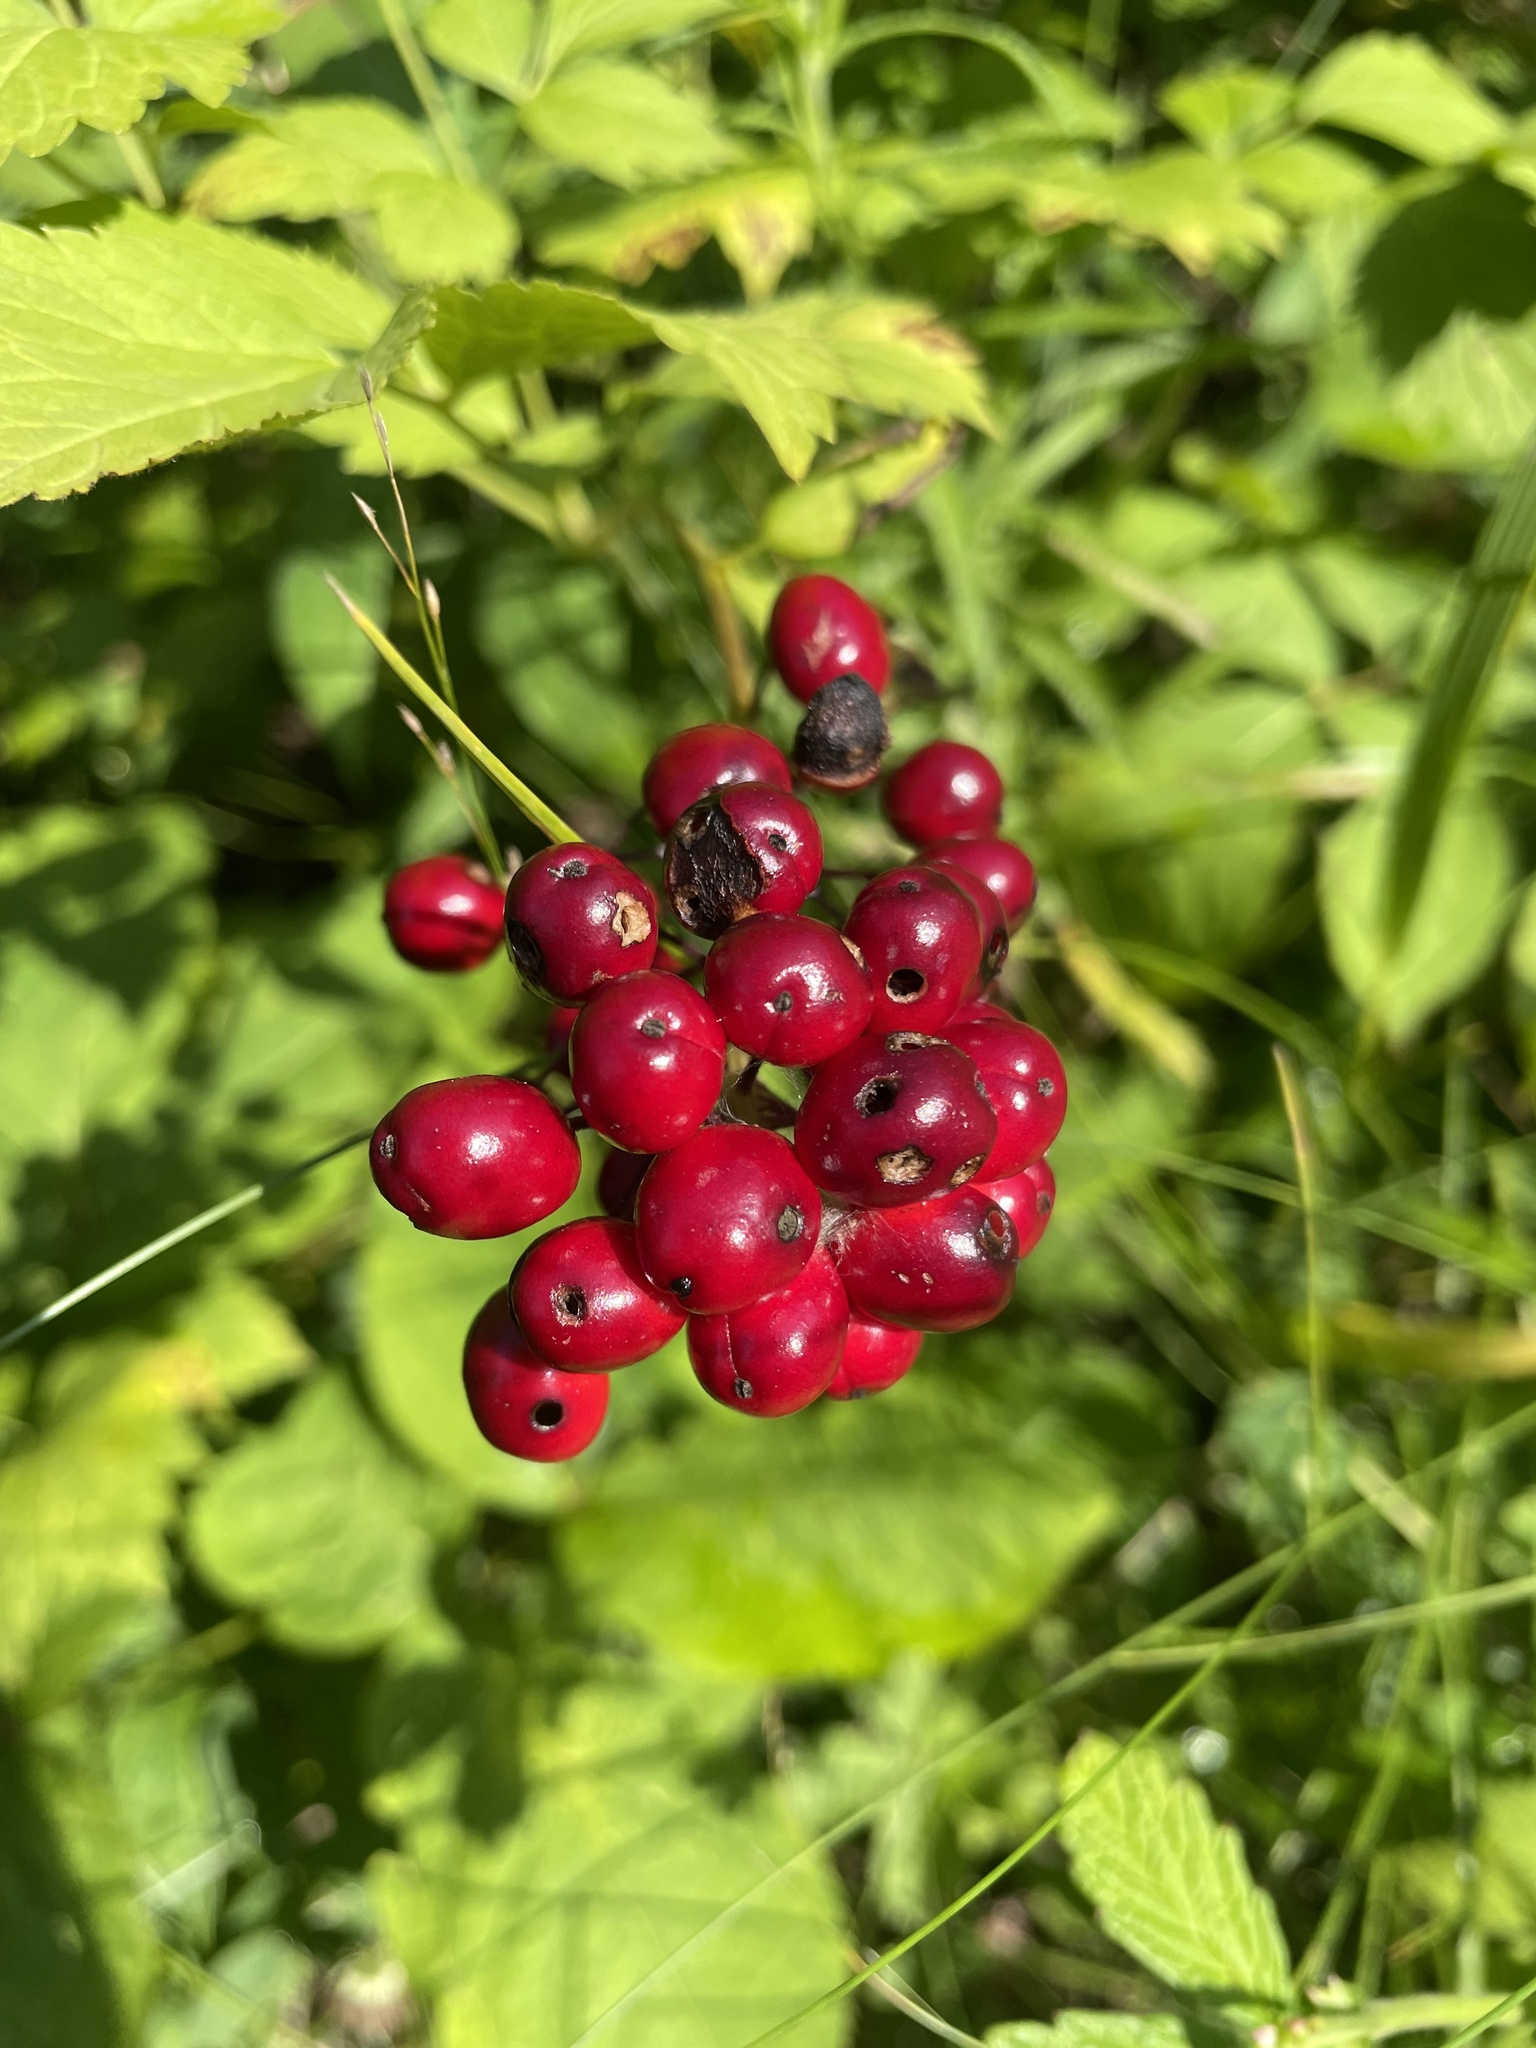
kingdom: Plantae
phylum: Tracheophyta
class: Magnoliopsida
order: Ranunculales
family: Ranunculaceae
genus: Actaea
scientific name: Actaea rubra
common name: Red baneberry
